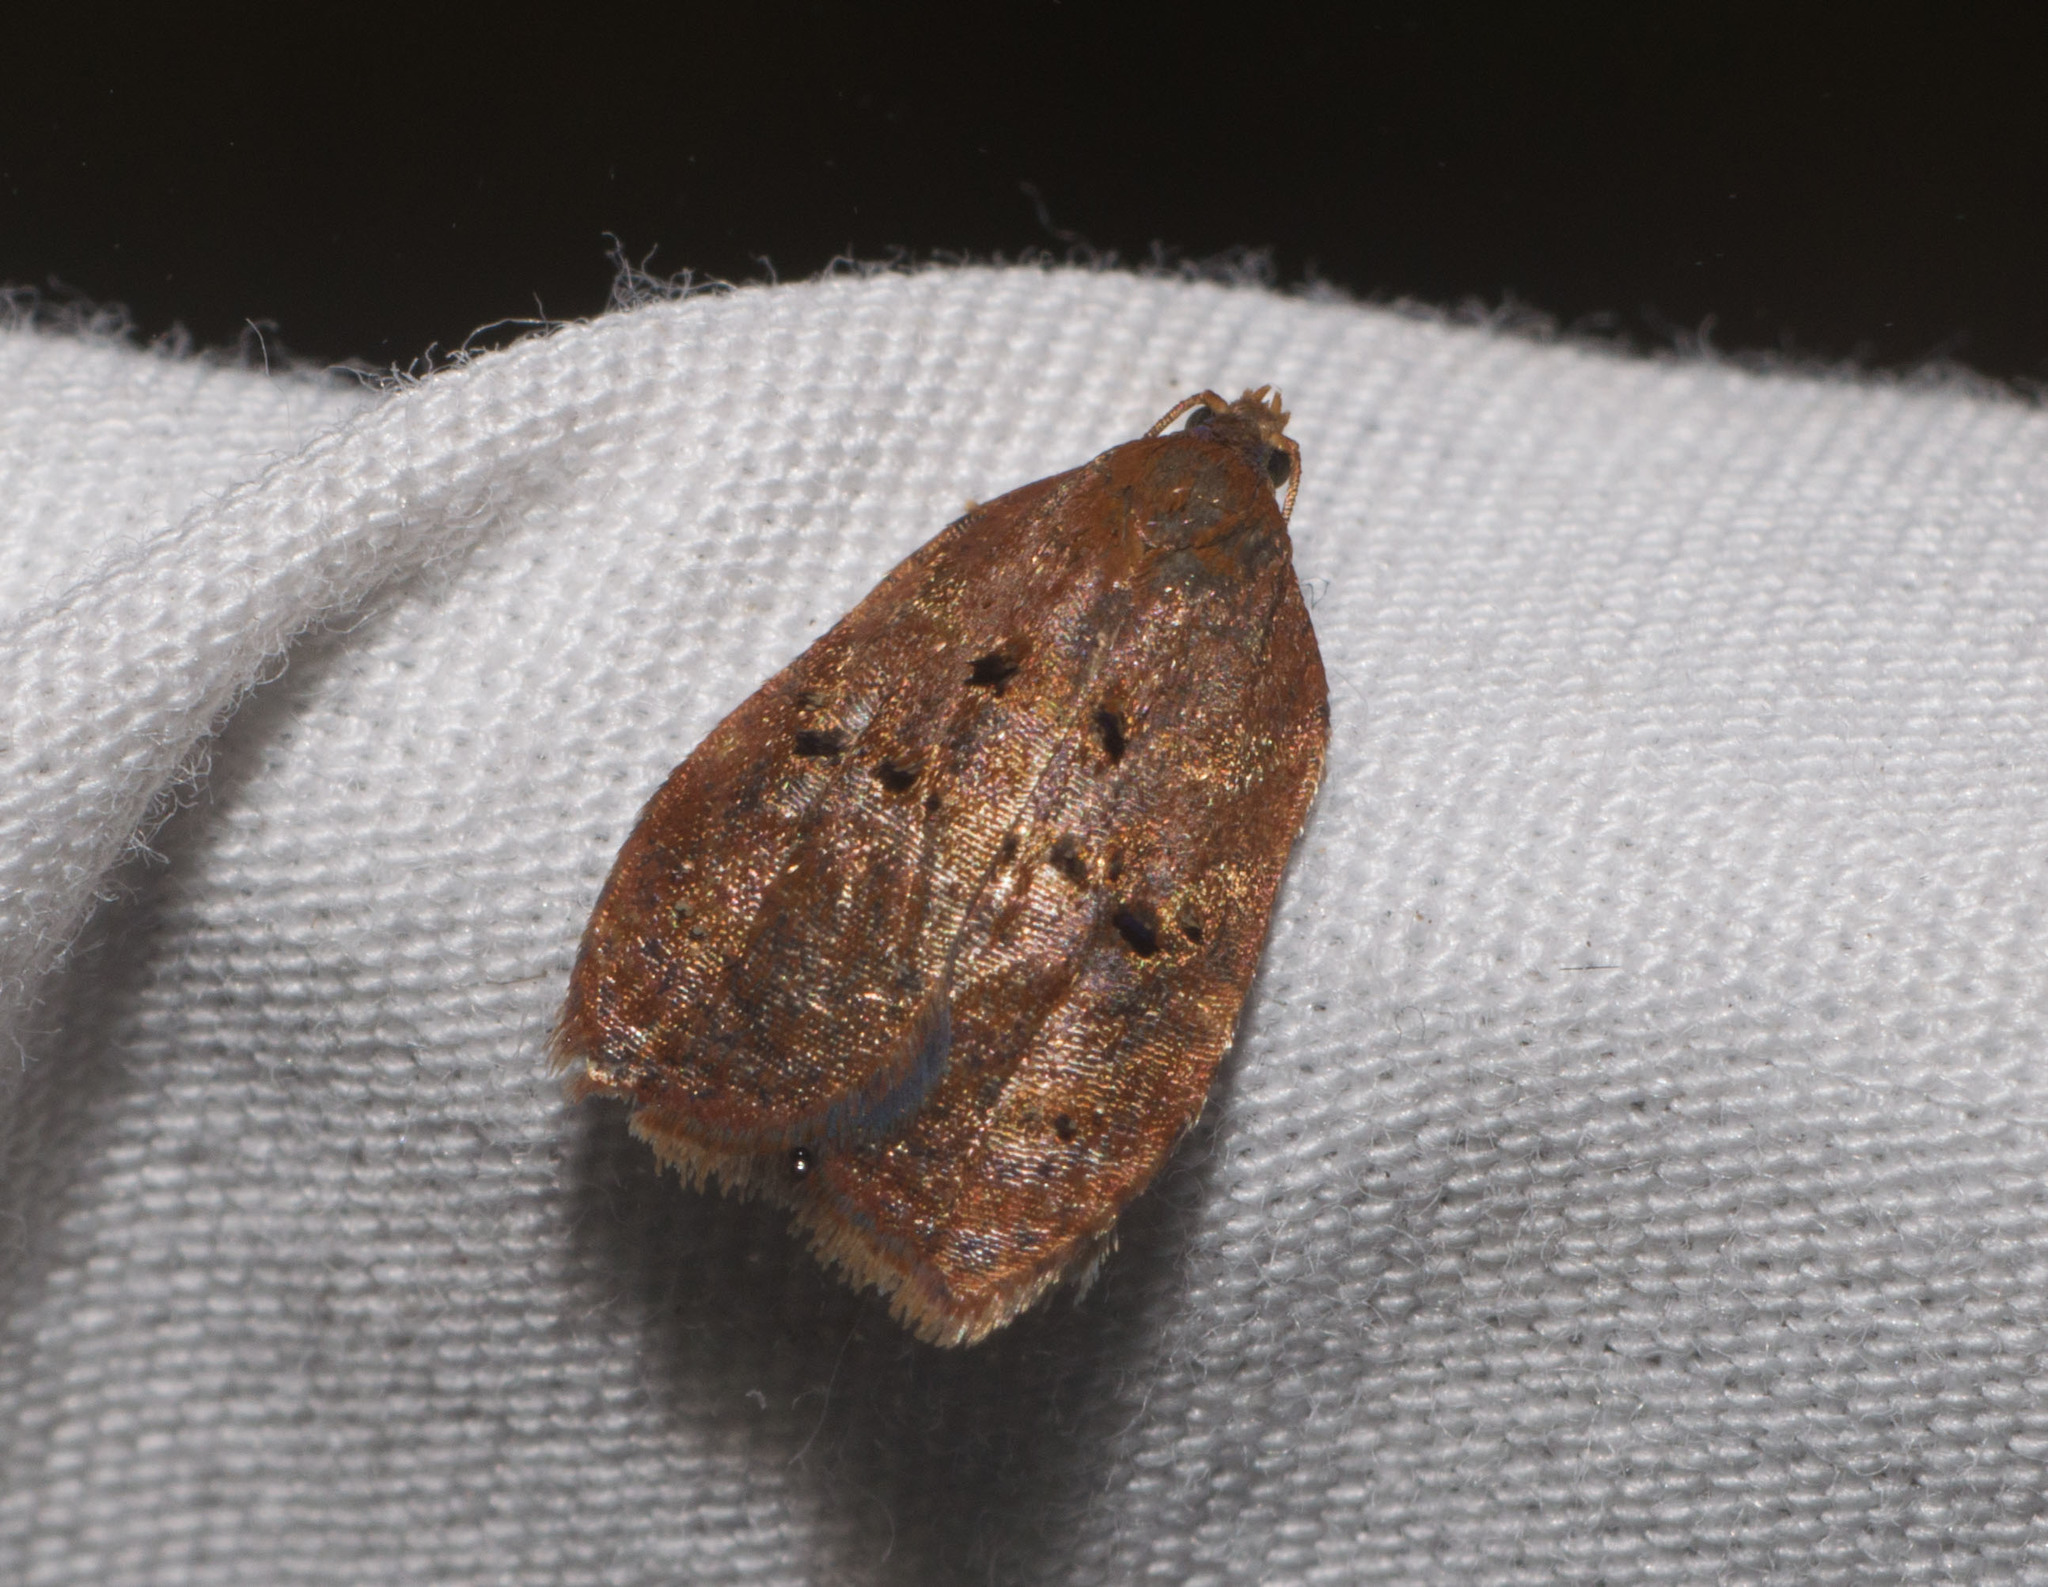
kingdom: Animalia
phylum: Arthropoda
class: Insecta
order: Lepidoptera
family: Tortricidae
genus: Acleris
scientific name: Acleris zimmermani
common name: Tortricid moth
